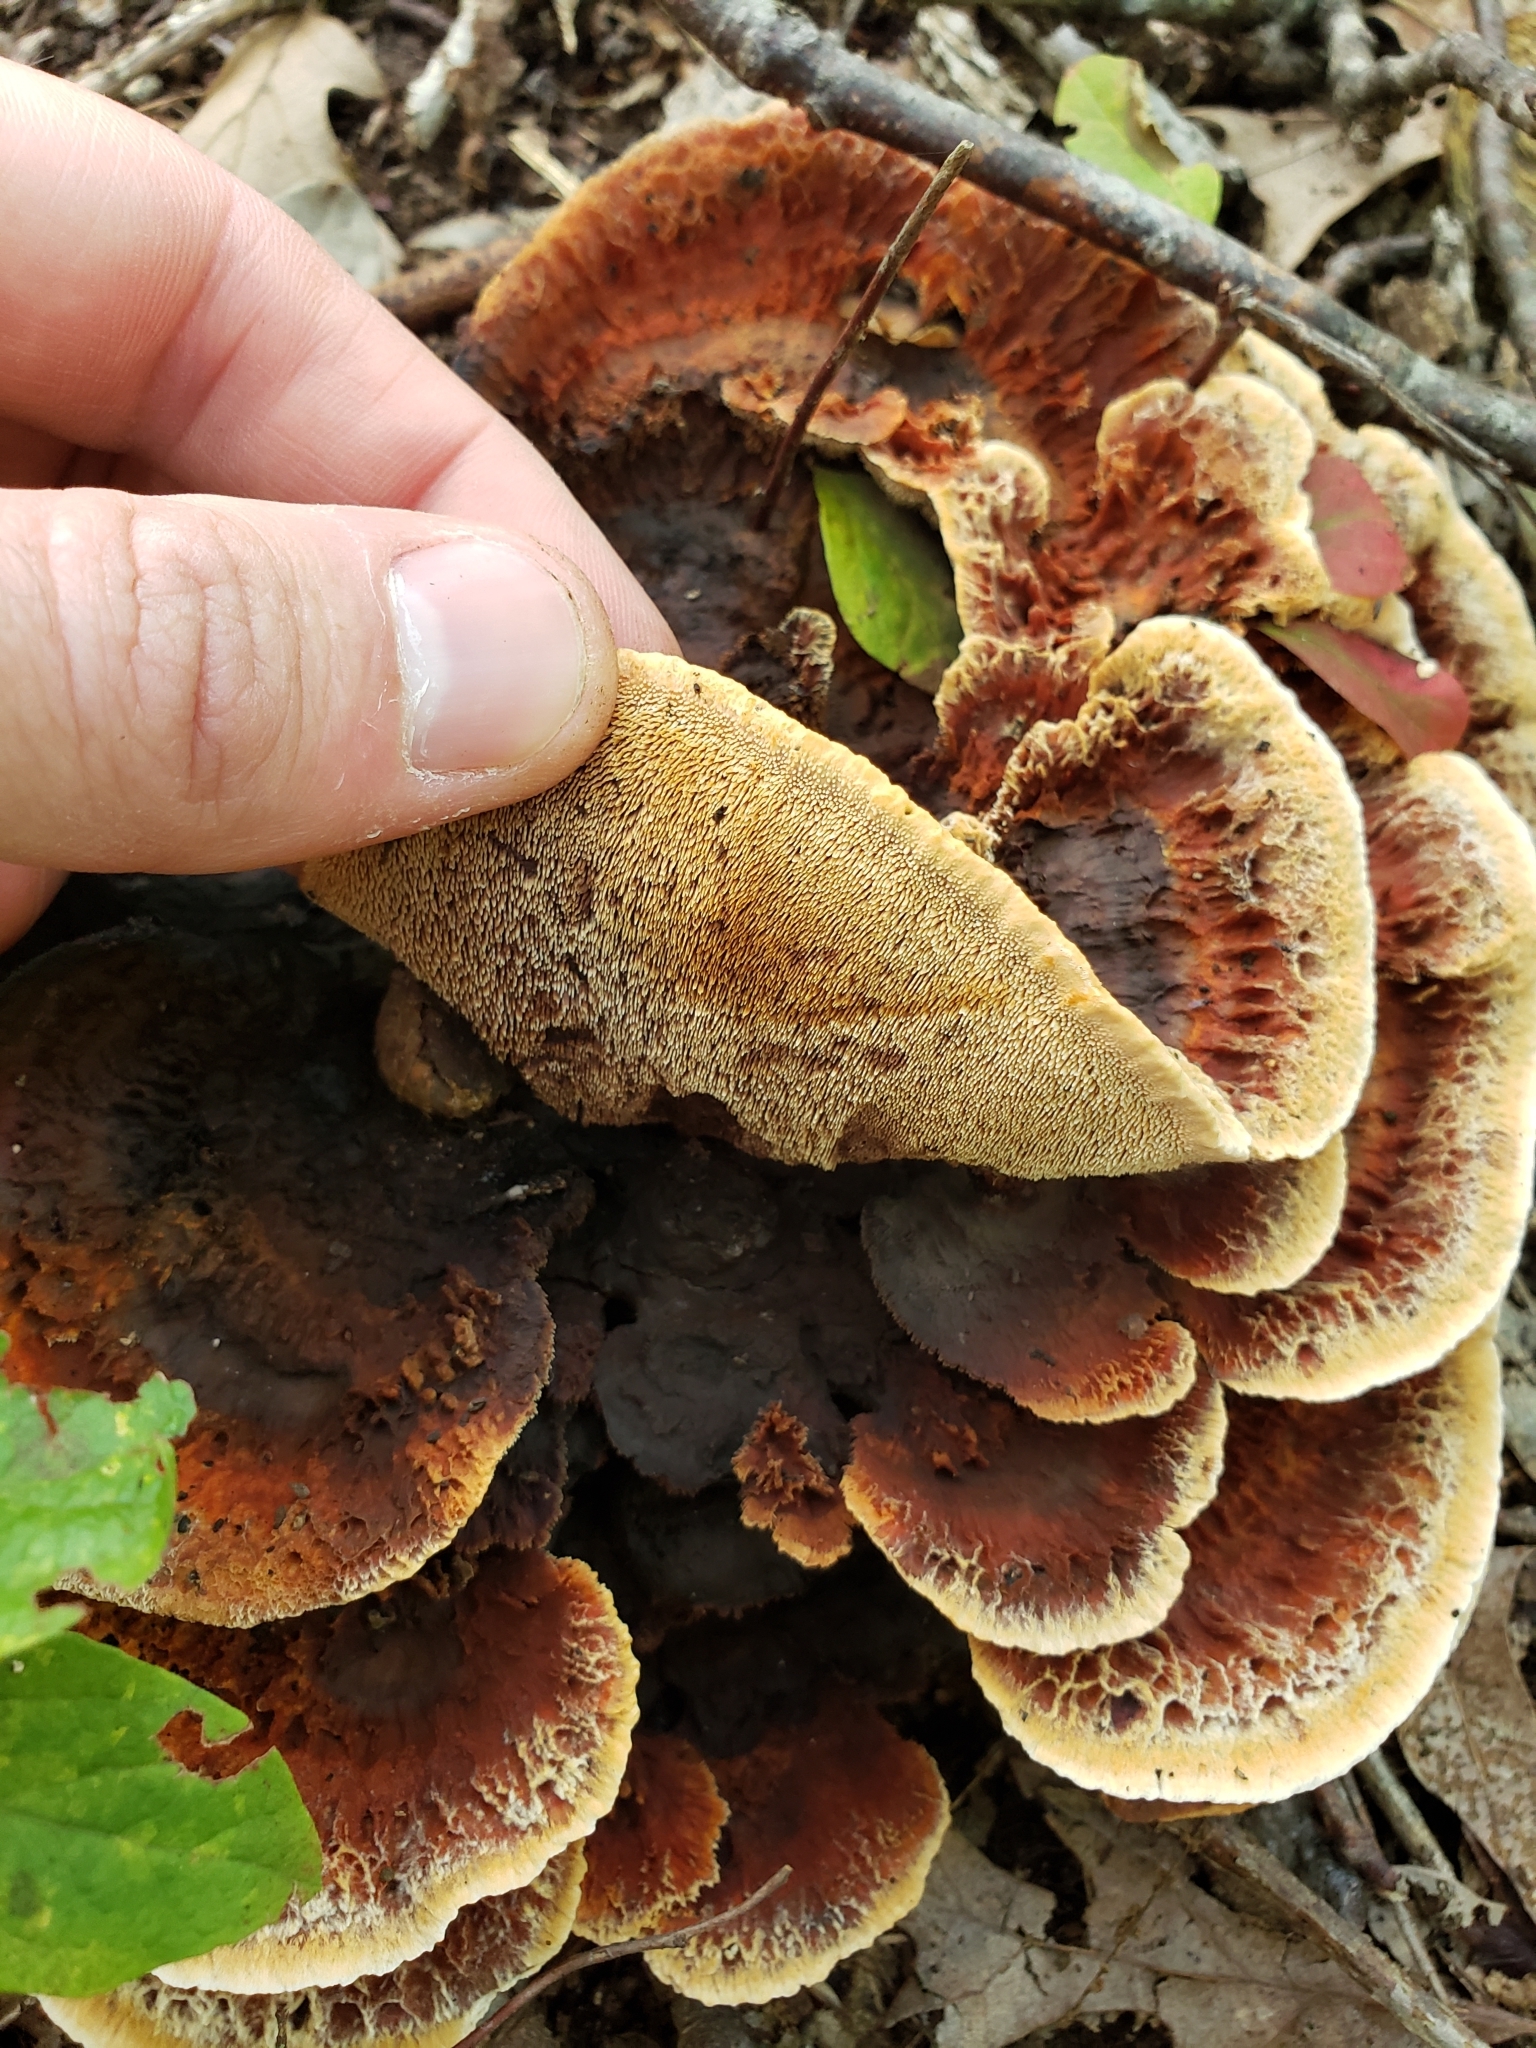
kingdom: Fungi
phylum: Basidiomycota
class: Agaricomycetes
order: Polyporales
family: Laetiporaceae
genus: Phaeolus
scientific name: Phaeolus schweinitzii
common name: Dyer's mazegill
